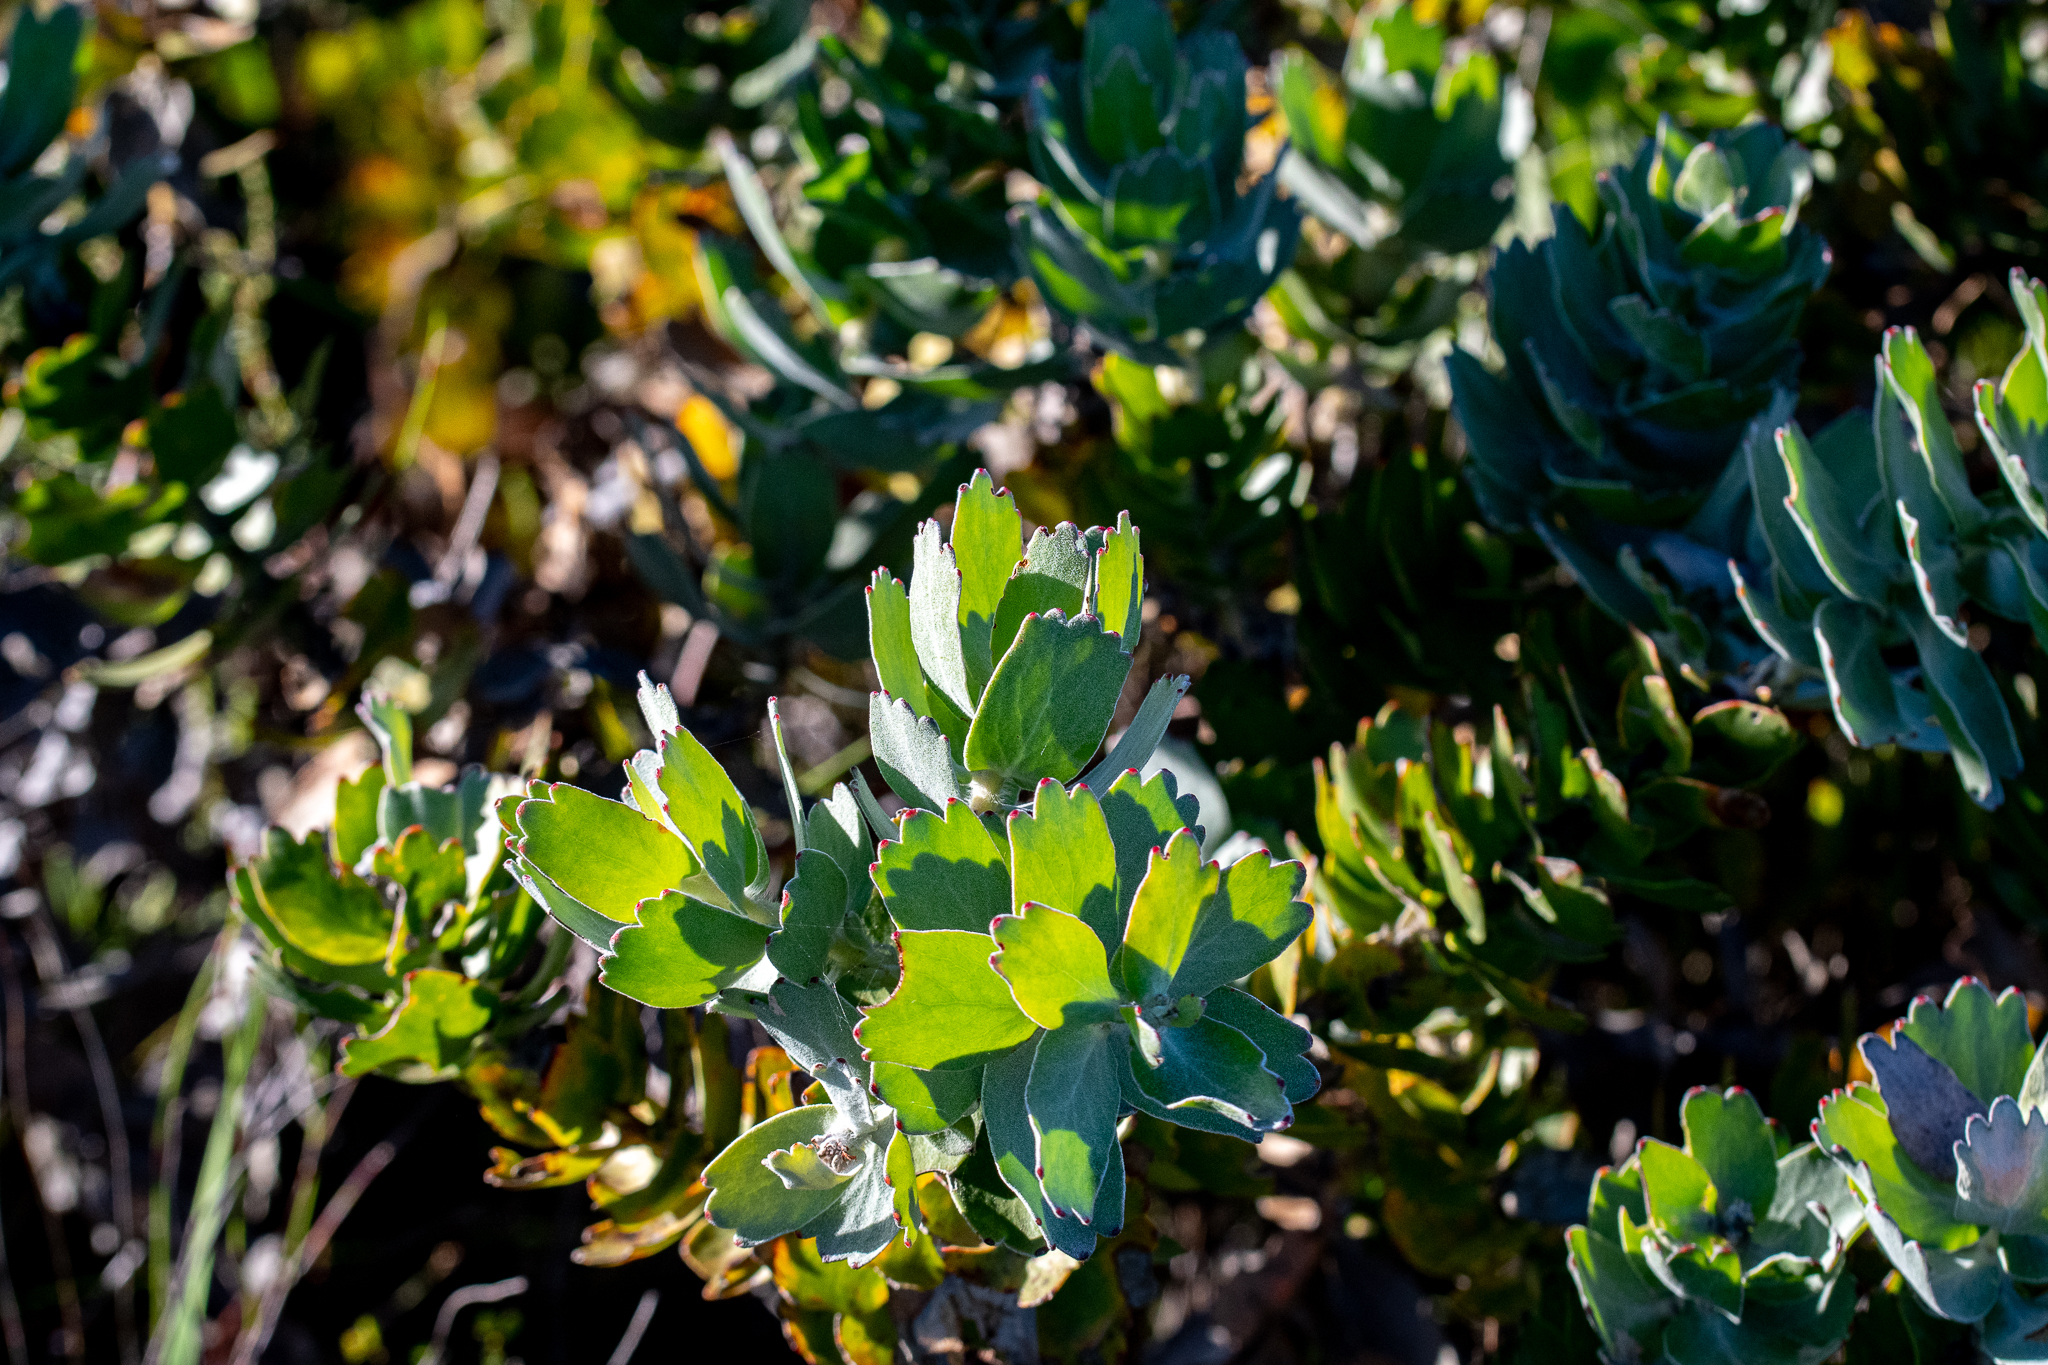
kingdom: Plantae
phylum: Tracheophyta
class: Magnoliopsida
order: Proteales
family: Proteaceae
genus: Leucospermum
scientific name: Leucospermum patersonii
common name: False tree pincushion
